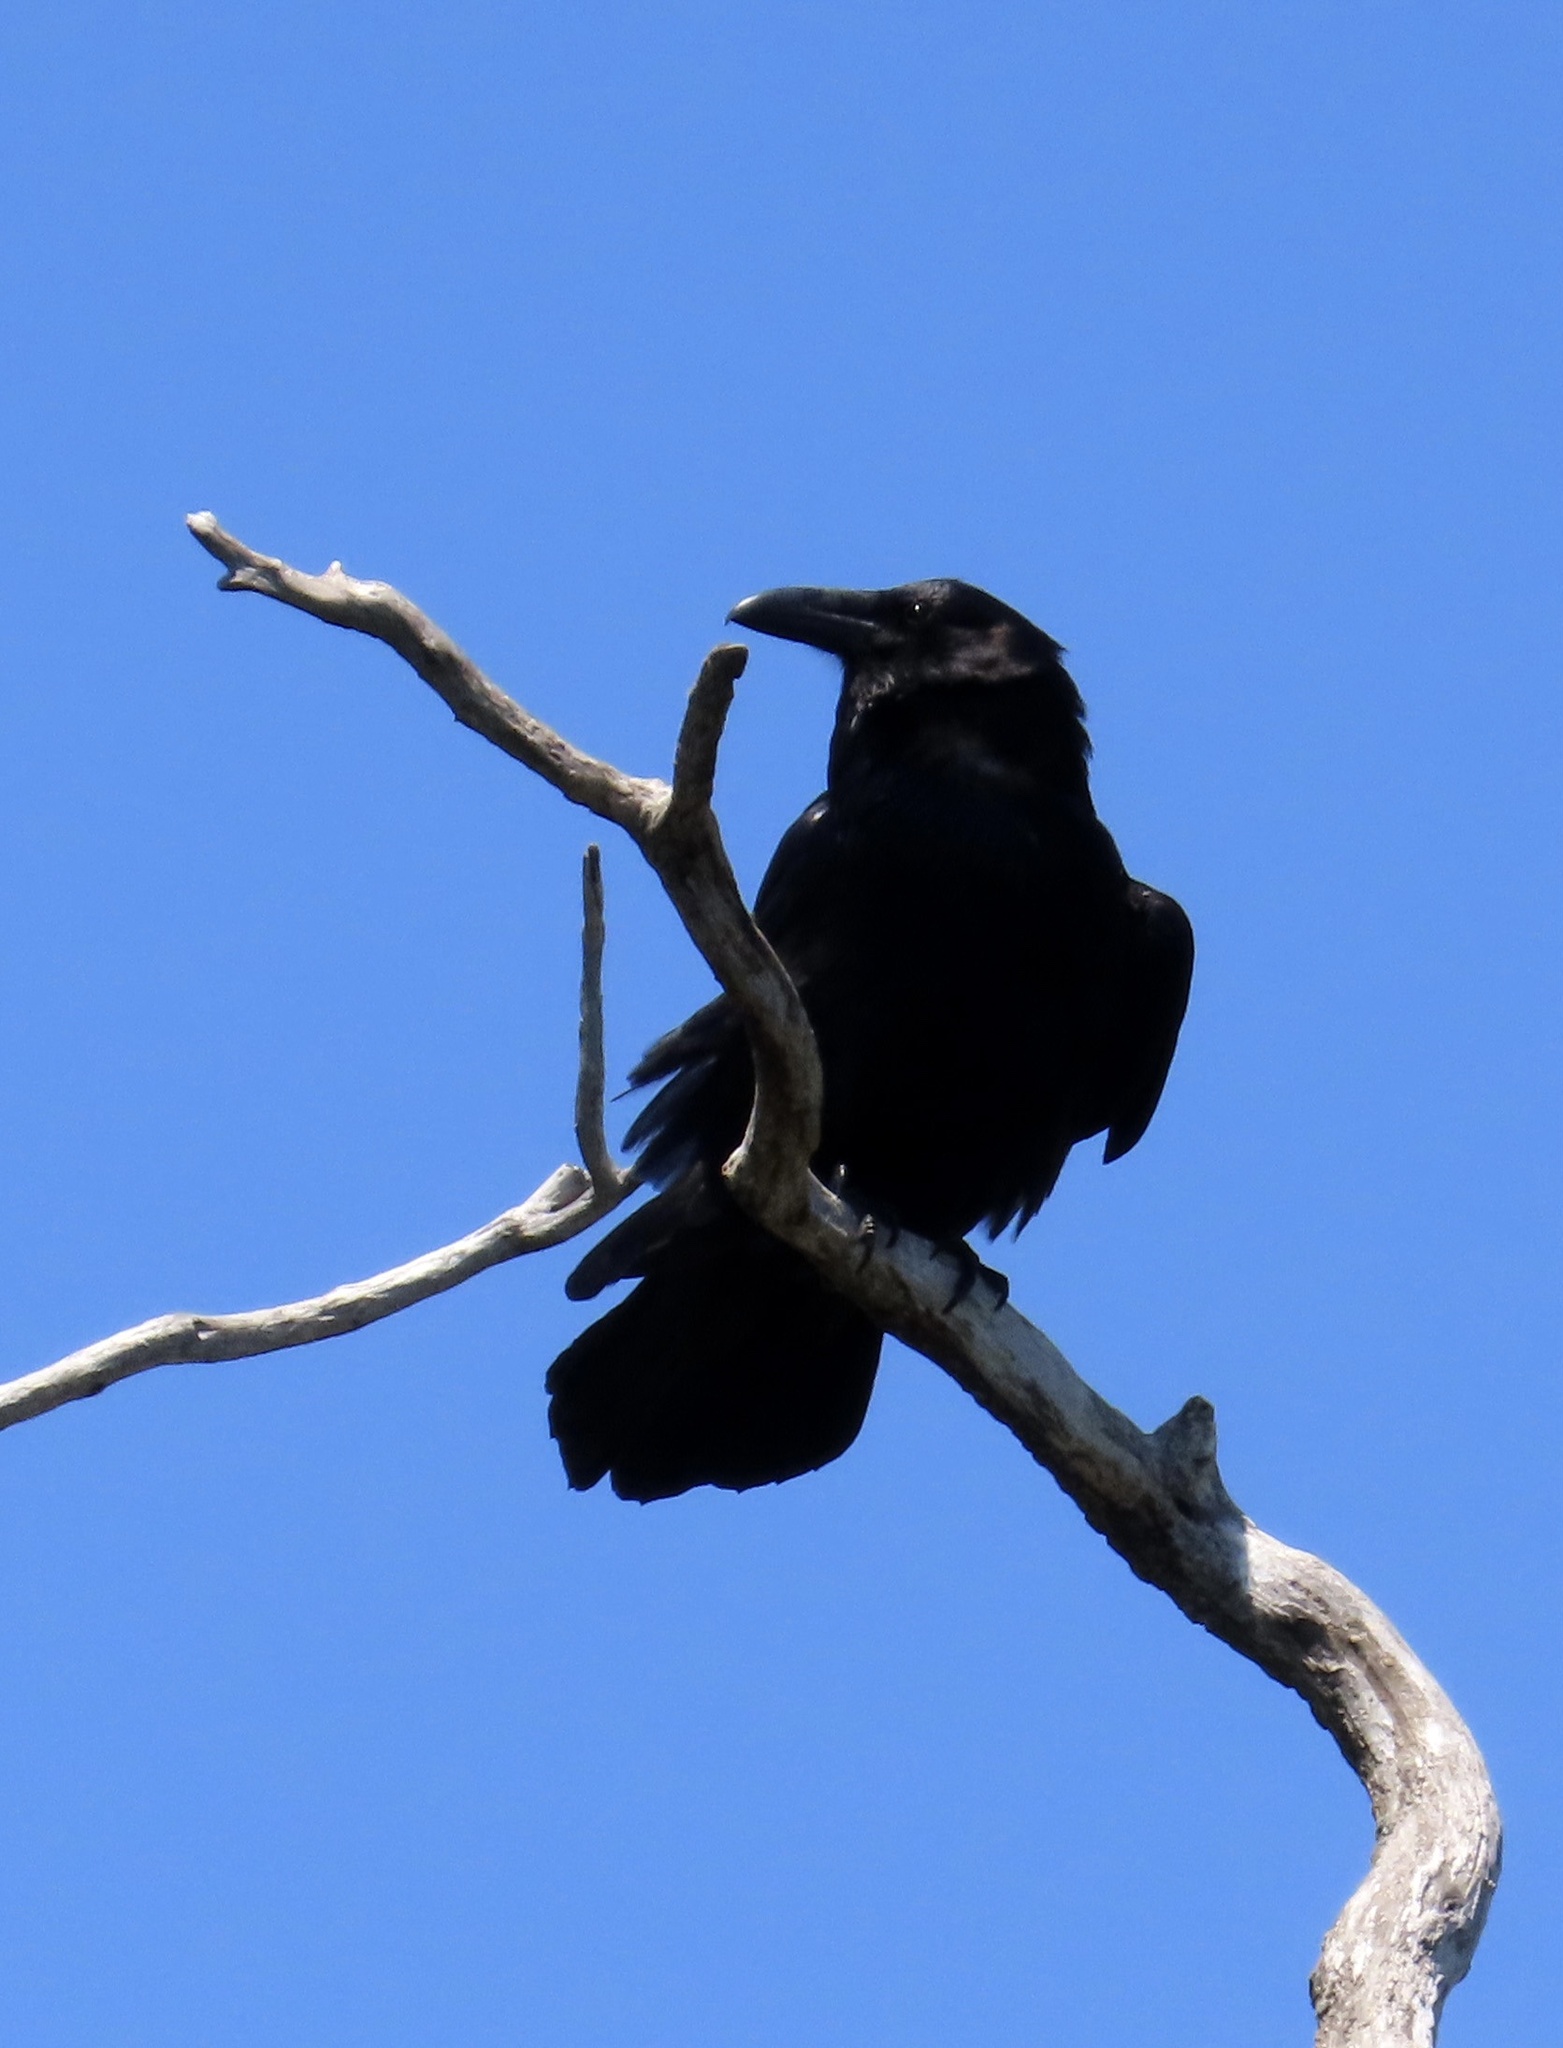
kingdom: Animalia
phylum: Chordata
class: Aves
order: Passeriformes
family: Corvidae
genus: Corvus
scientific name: Corvus corax
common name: Common raven
